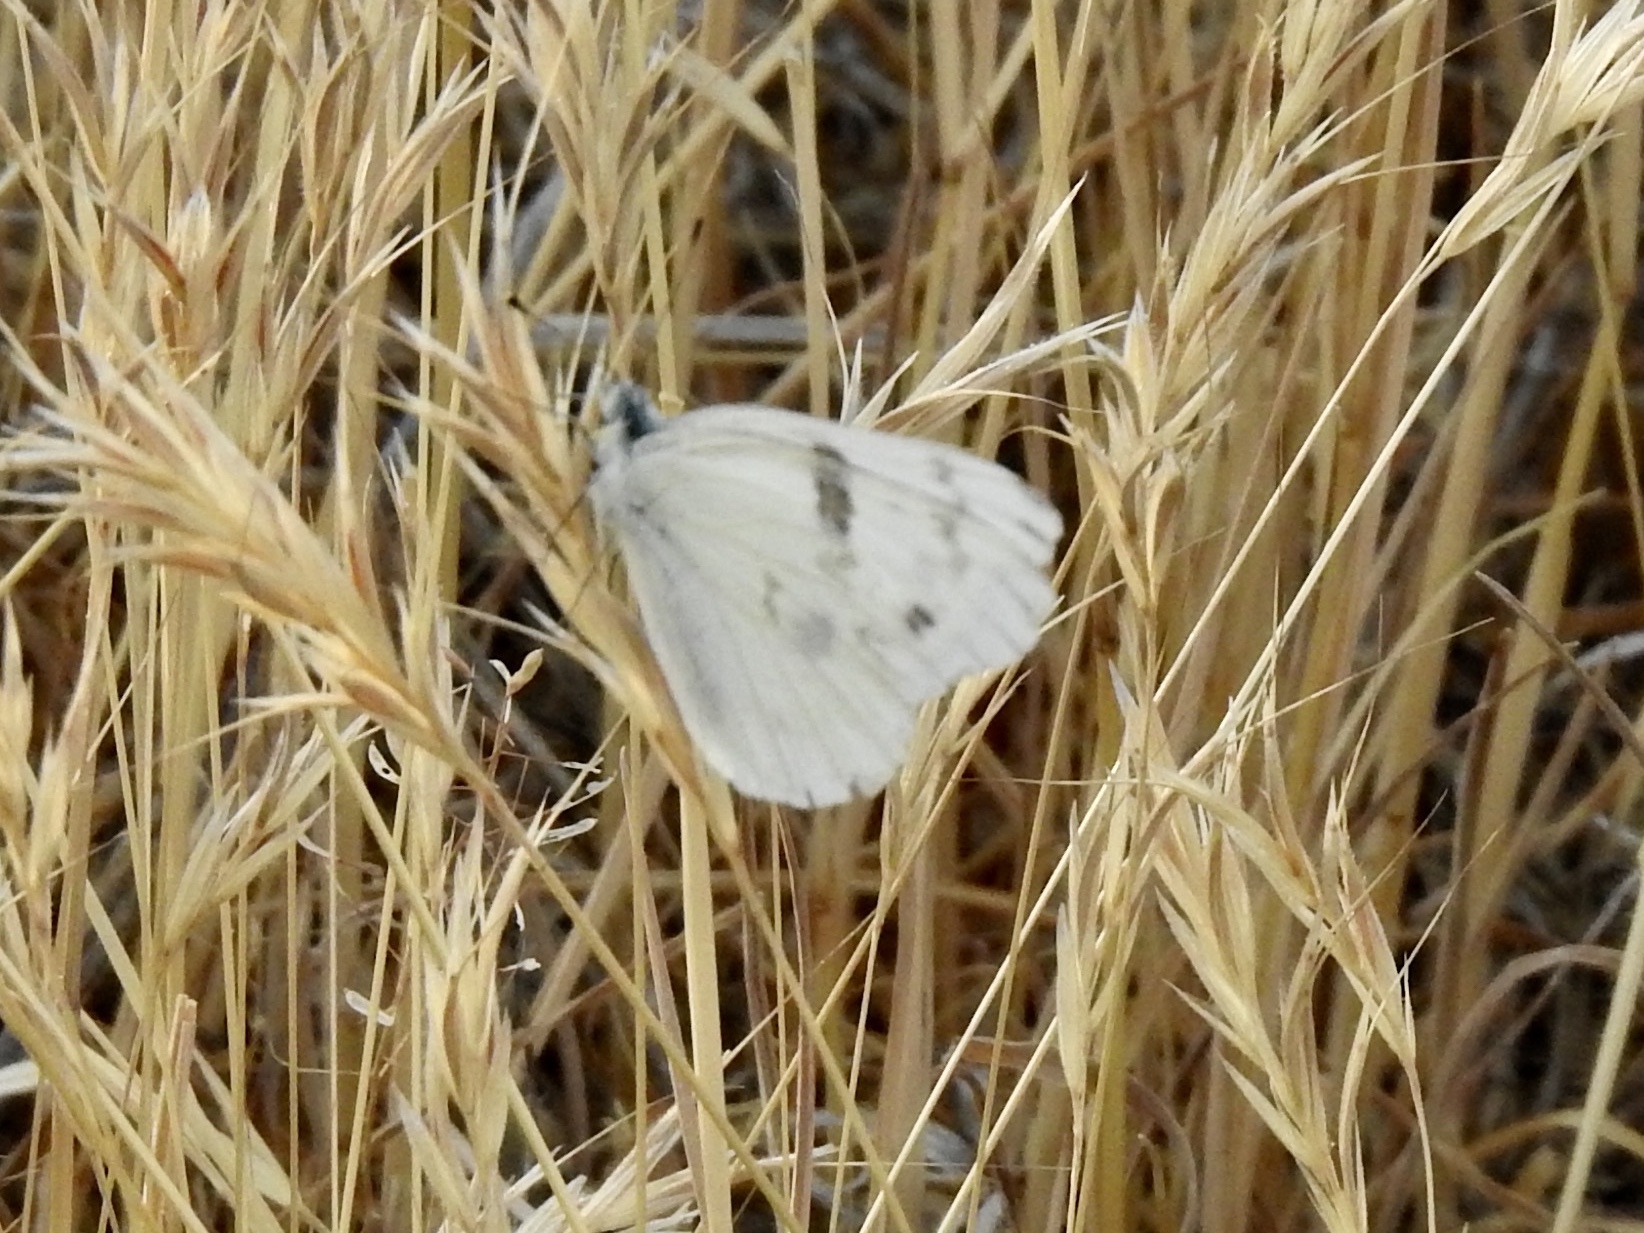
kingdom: Animalia
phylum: Arthropoda
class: Insecta
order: Lepidoptera
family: Pieridae
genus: Pontia
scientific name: Pontia protodice
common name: Checkered white
